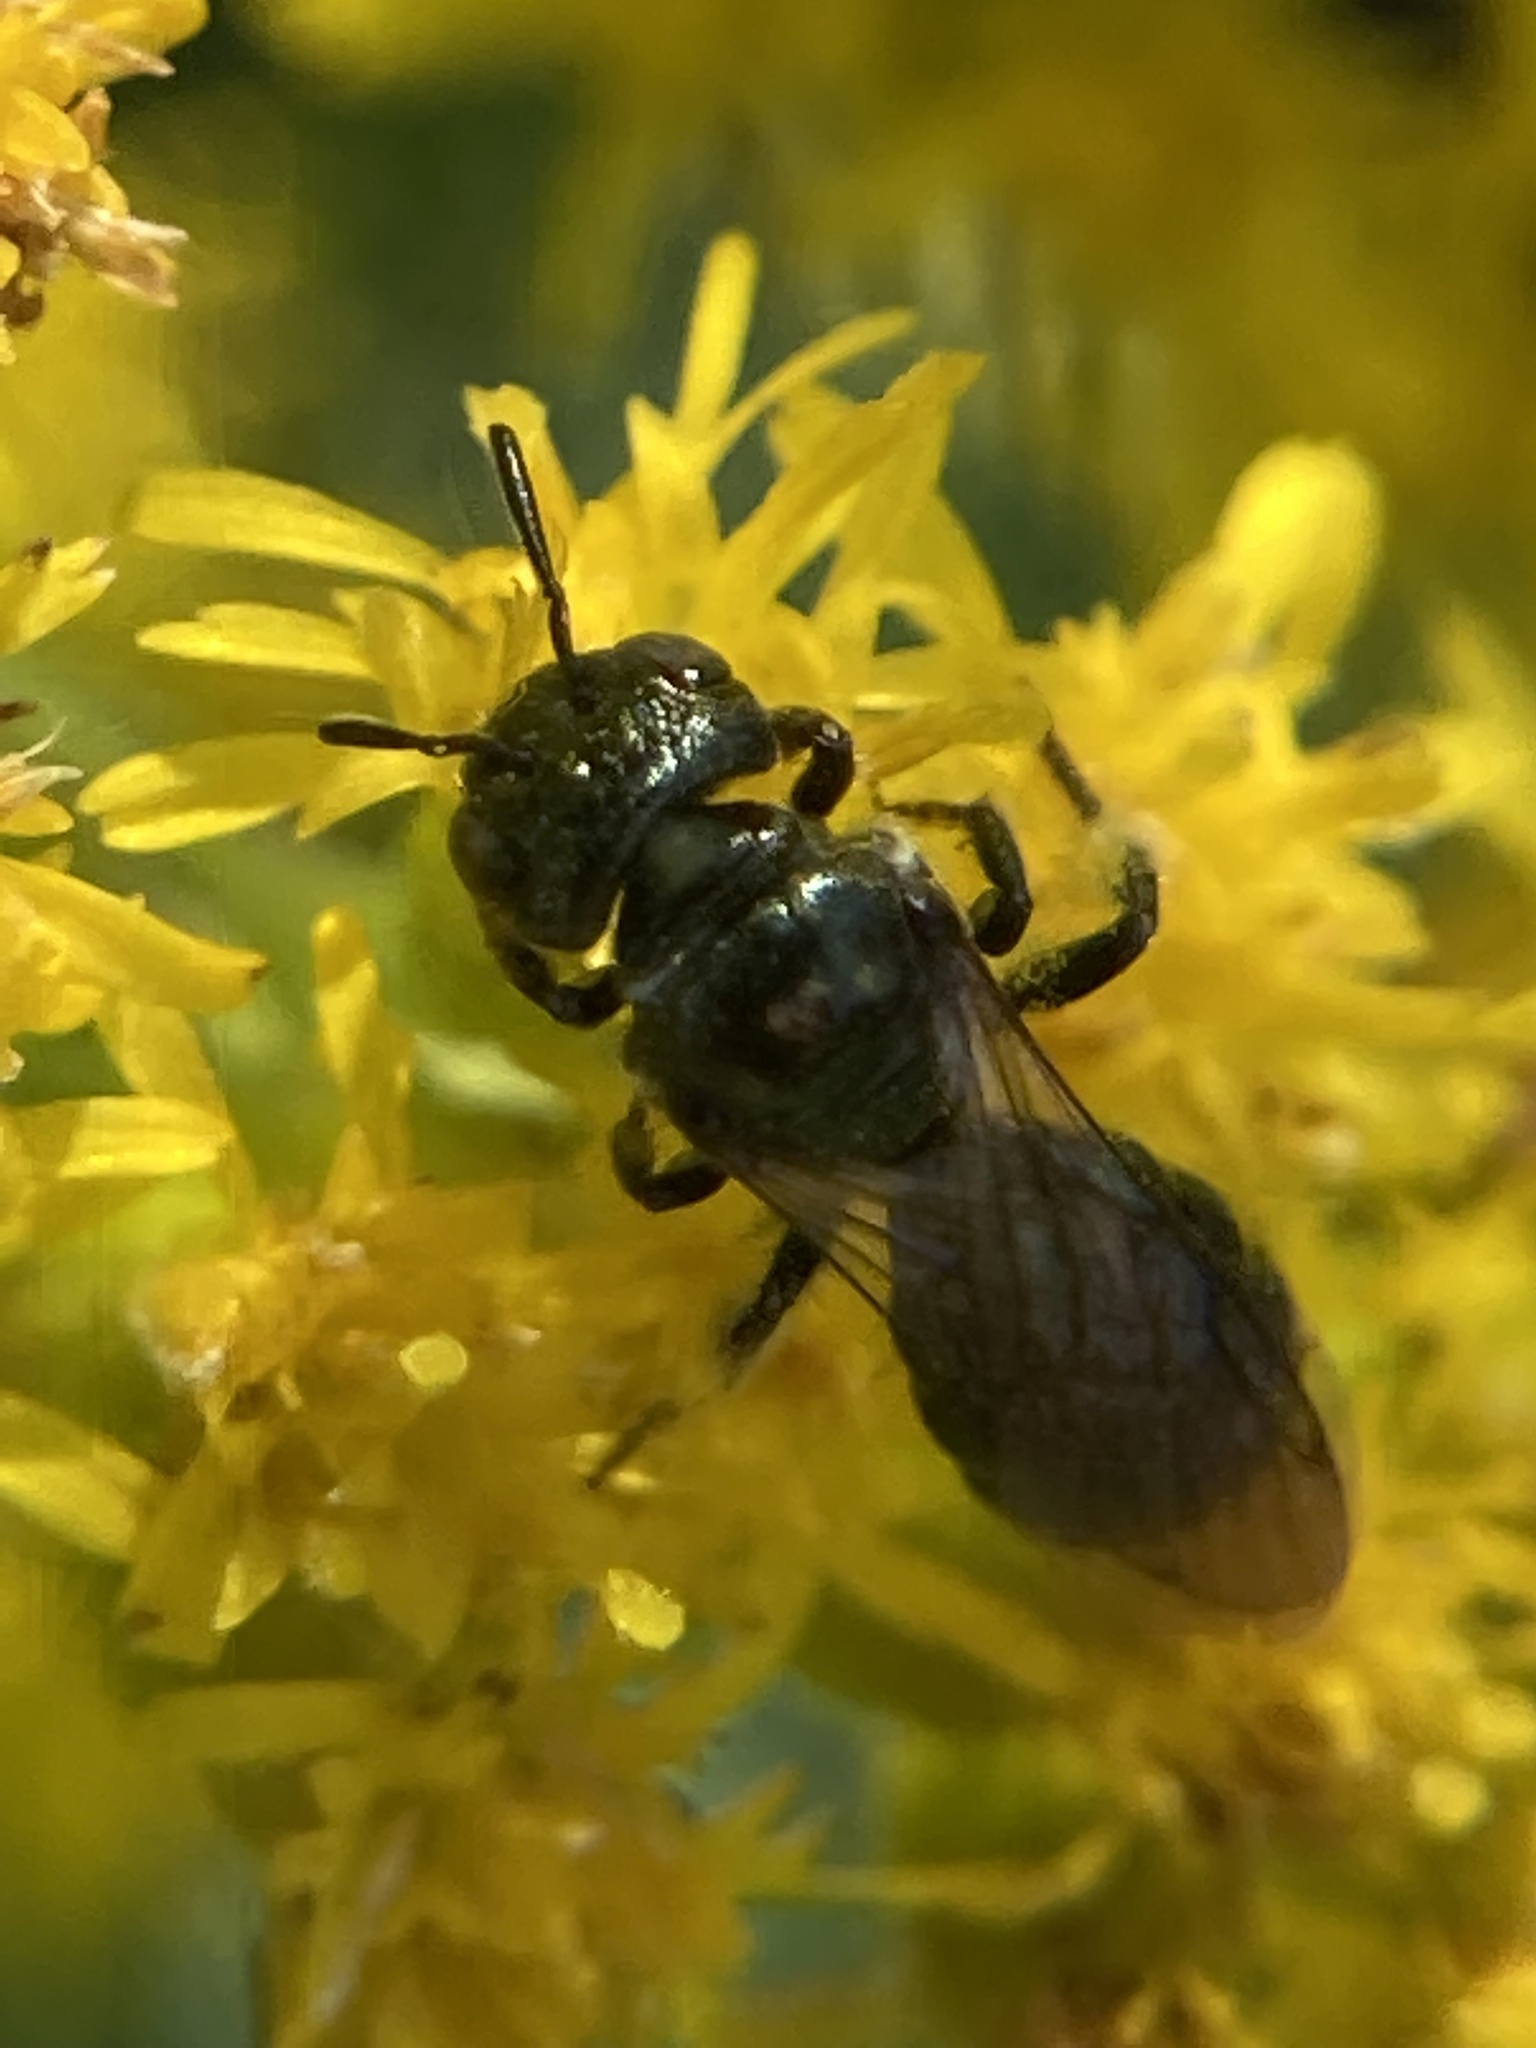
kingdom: Animalia
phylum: Arthropoda
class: Insecta
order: Hymenoptera
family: Apidae
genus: Zadontomerus
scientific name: Zadontomerus
